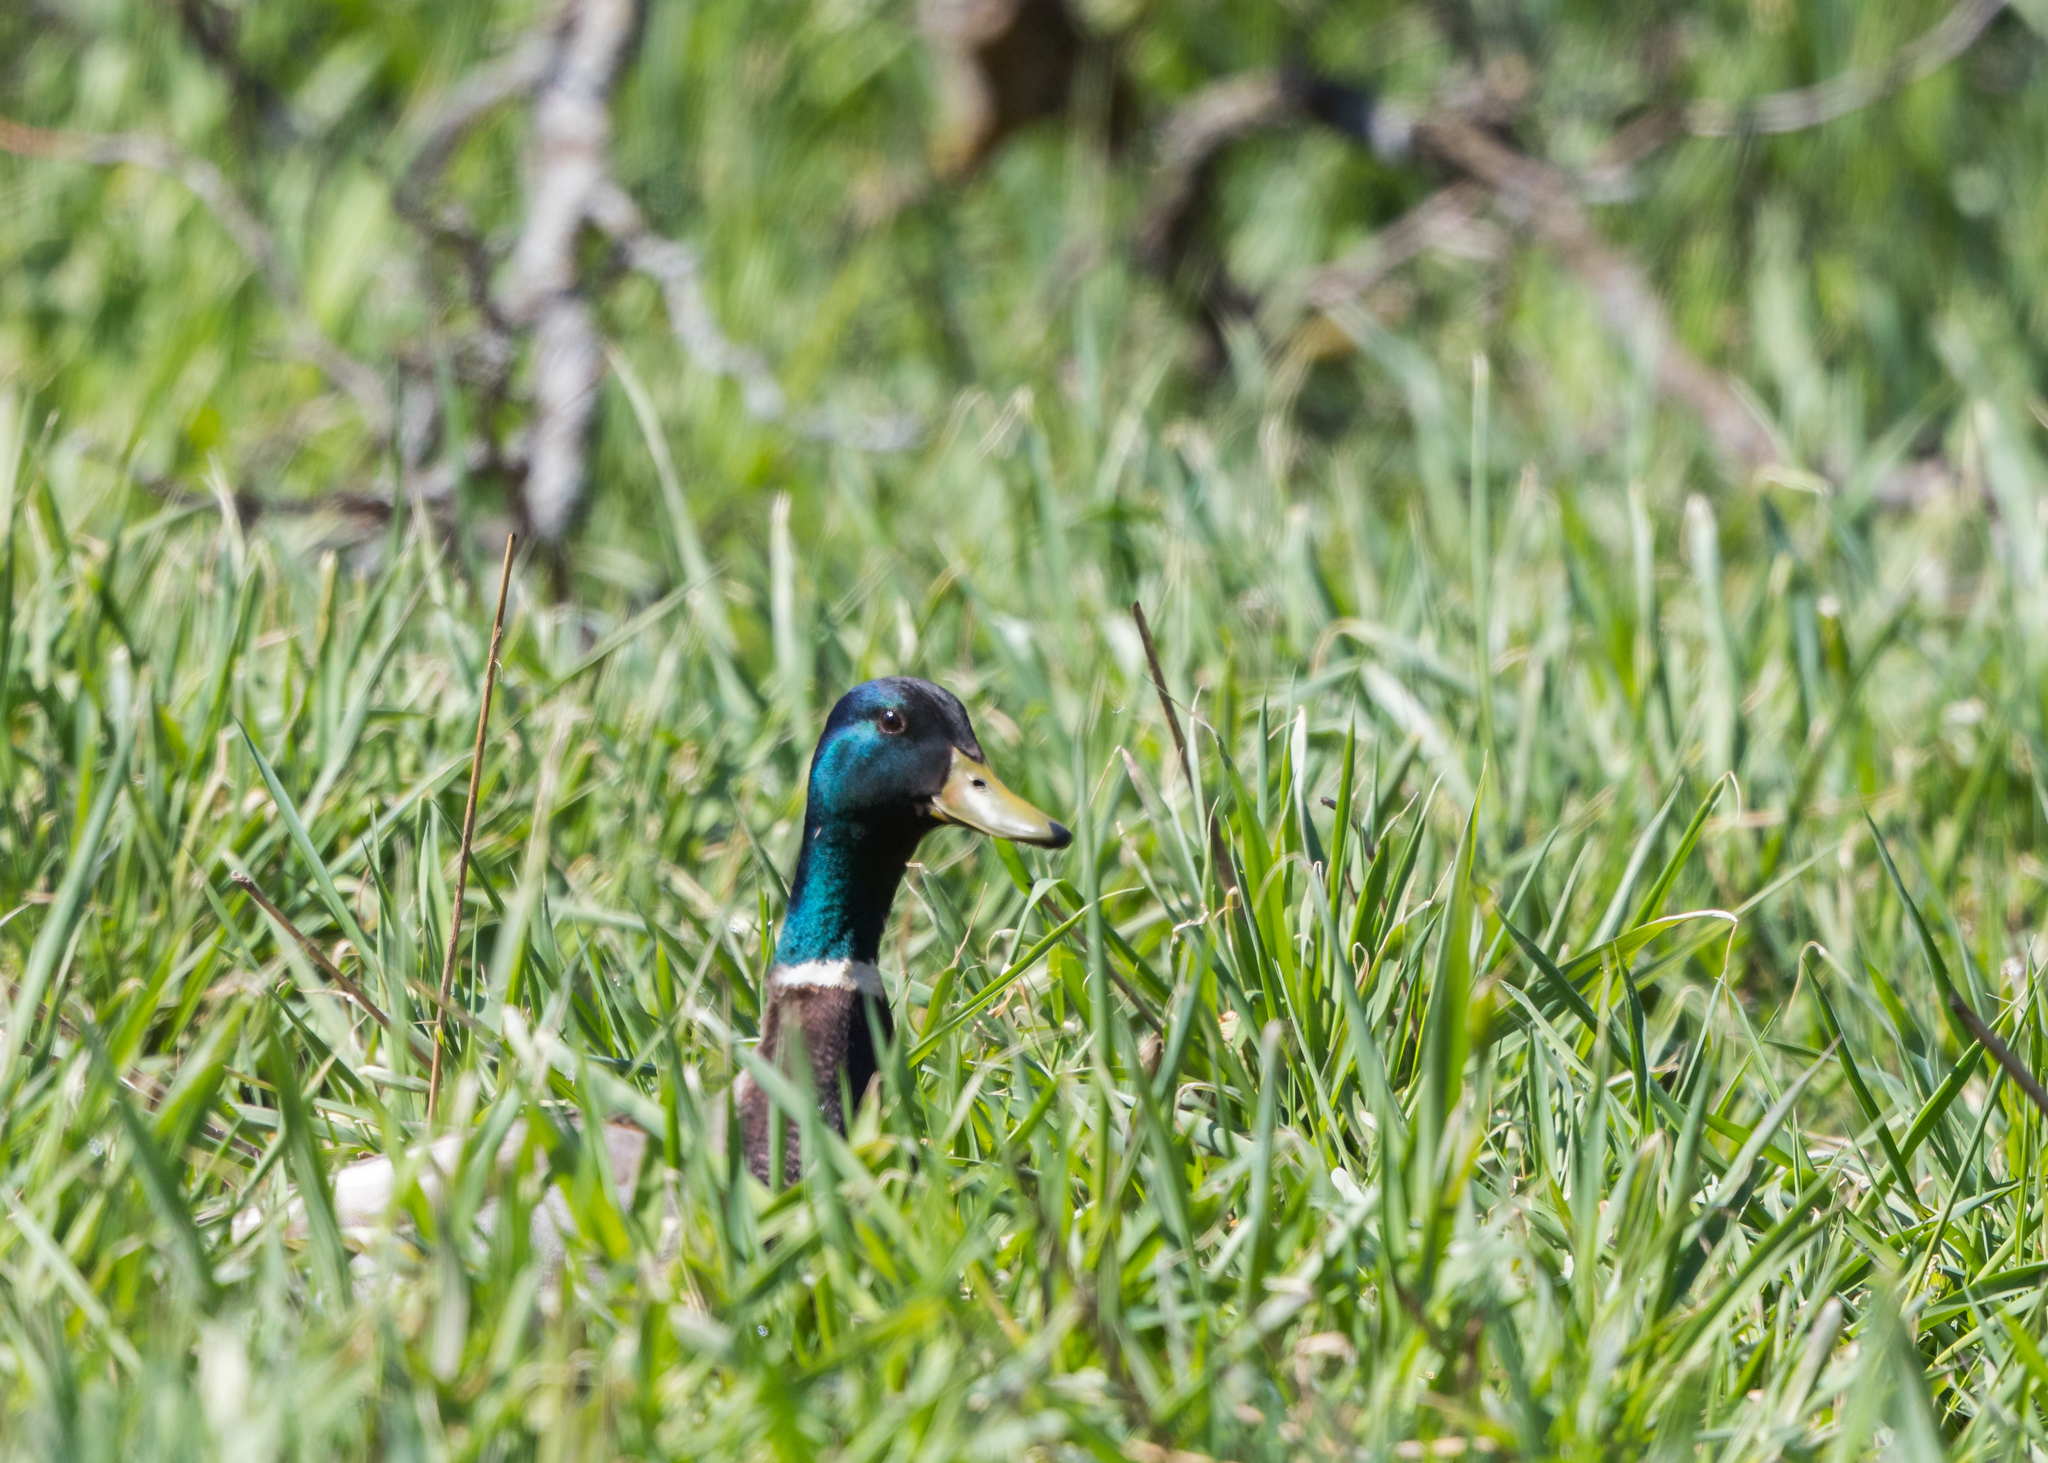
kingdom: Animalia
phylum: Chordata
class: Aves
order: Anseriformes
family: Anatidae
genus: Anas
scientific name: Anas platyrhynchos
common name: Mallard
